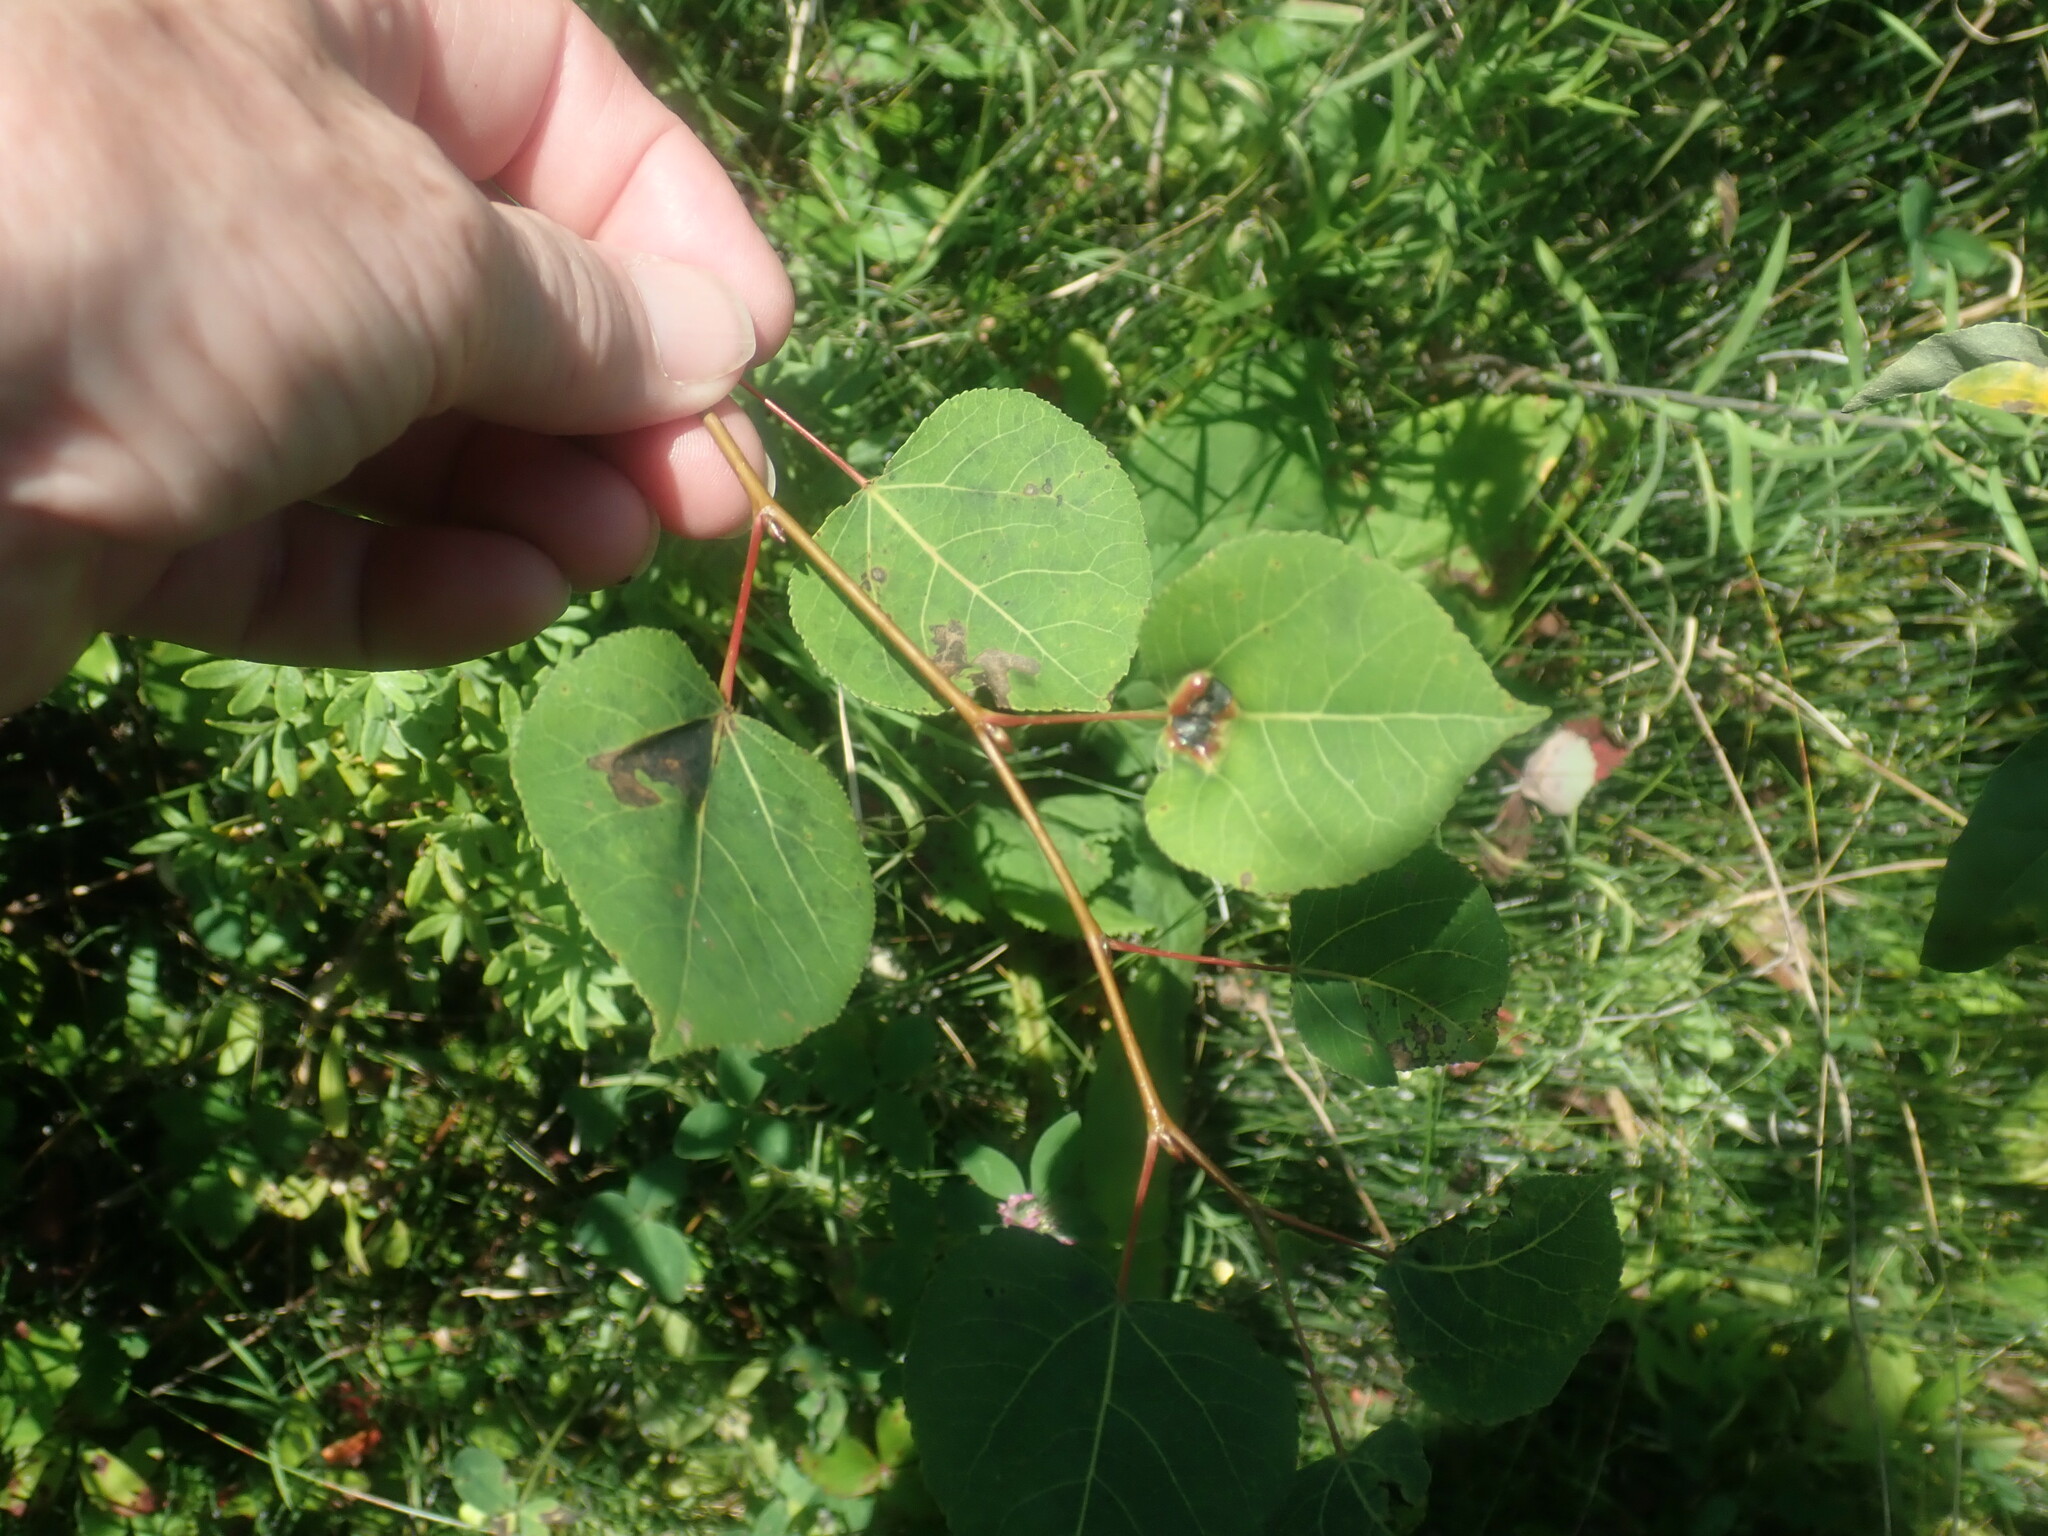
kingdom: Plantae
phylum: Tracheophyta
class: Magnoliopsida
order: Malpighiales
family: Salicaceae
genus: Populus
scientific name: Populus tremuloides
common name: Quaking aspen
